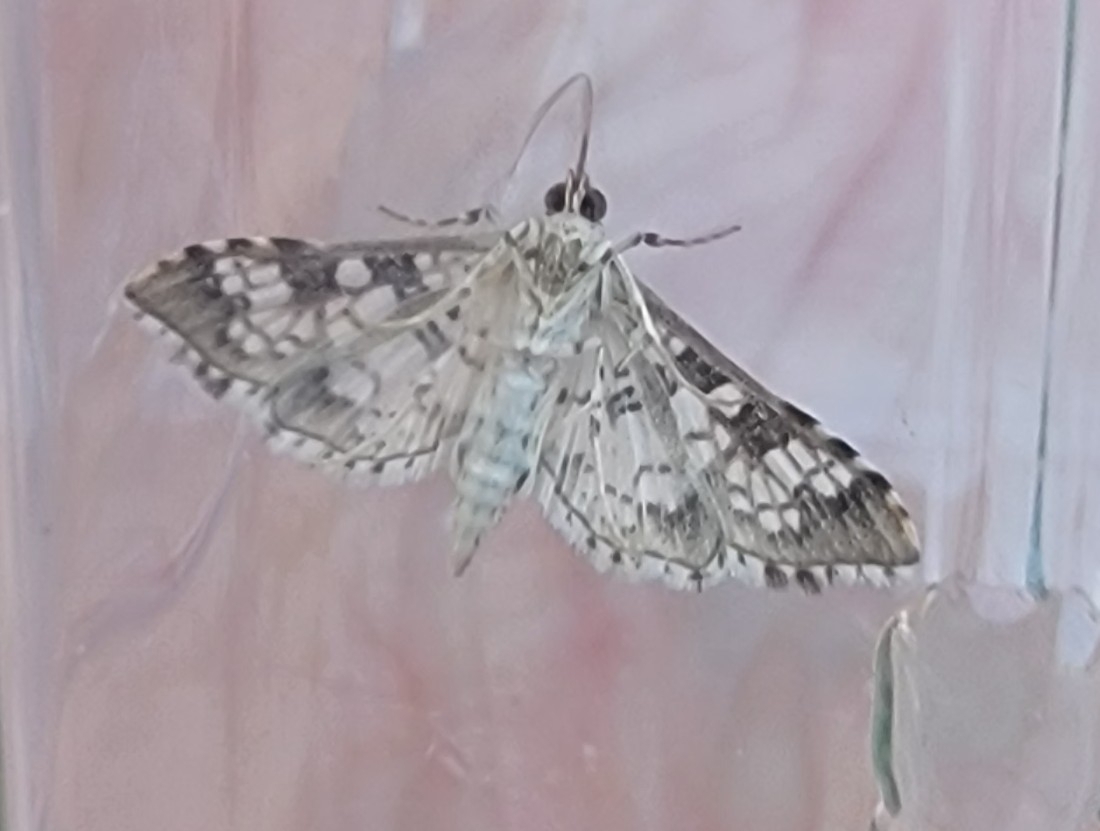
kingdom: Animalia
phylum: Arthropoda
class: Insecta
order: Lepidoptera
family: Crambidae
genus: Samea
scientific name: Samea ecclesialis
